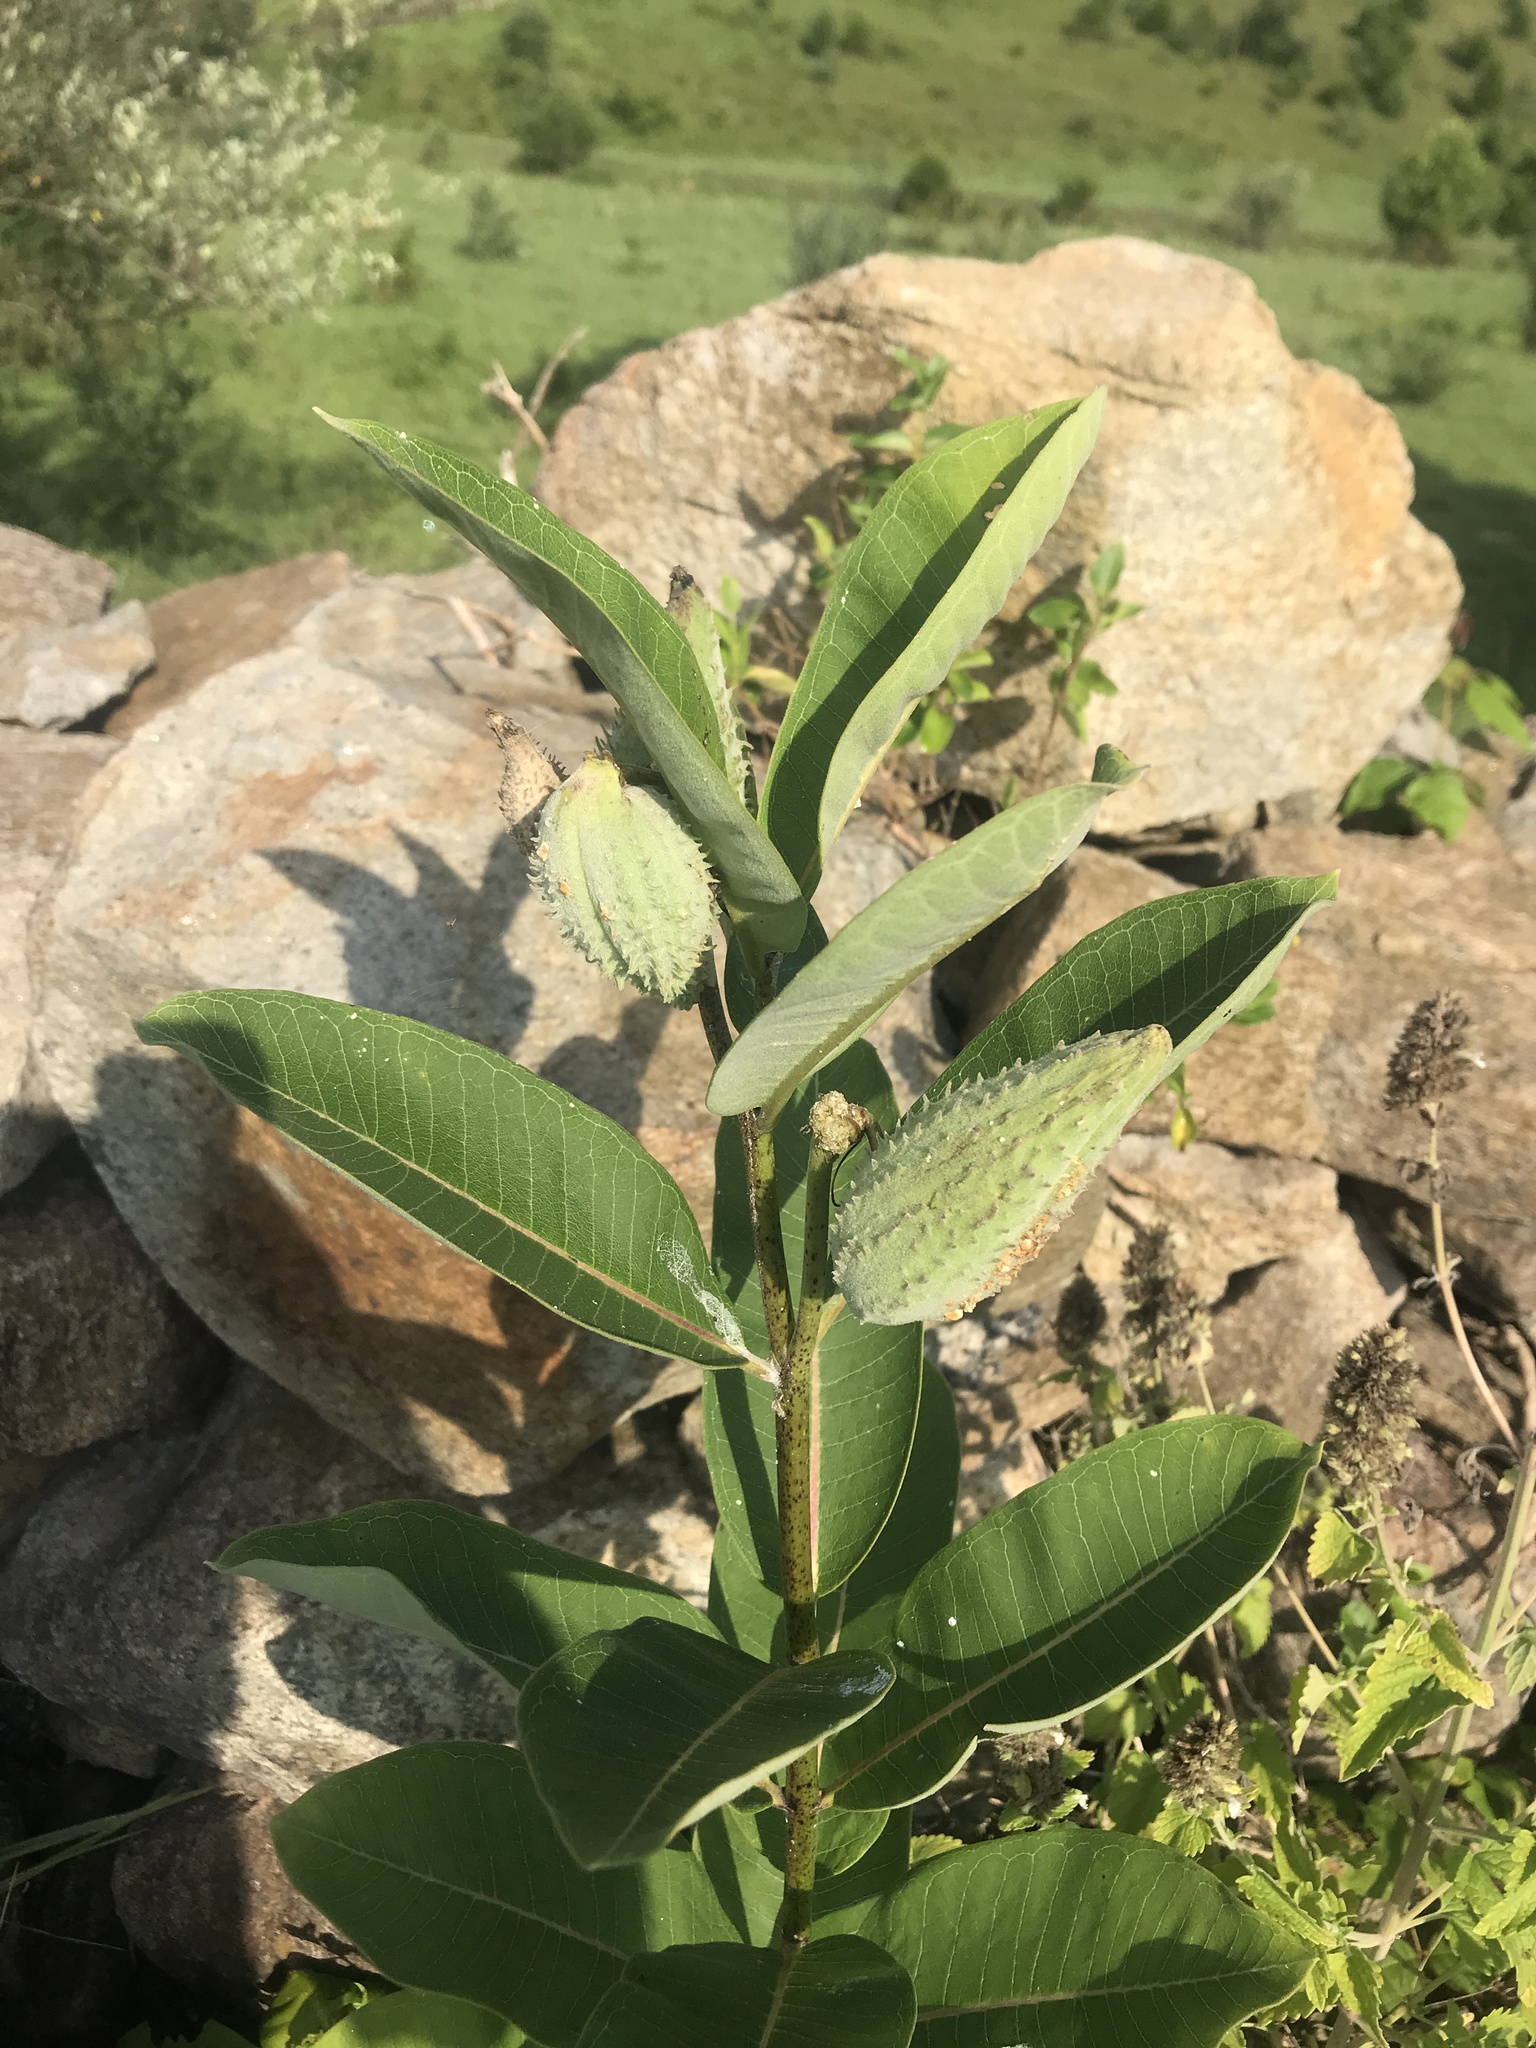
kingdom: Plantae
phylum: Tracheophyta
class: Magnoliopsida
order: Gentianales
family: Apocynaceae
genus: Asclepias
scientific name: Asclepias syriaca
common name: Common milkweed
